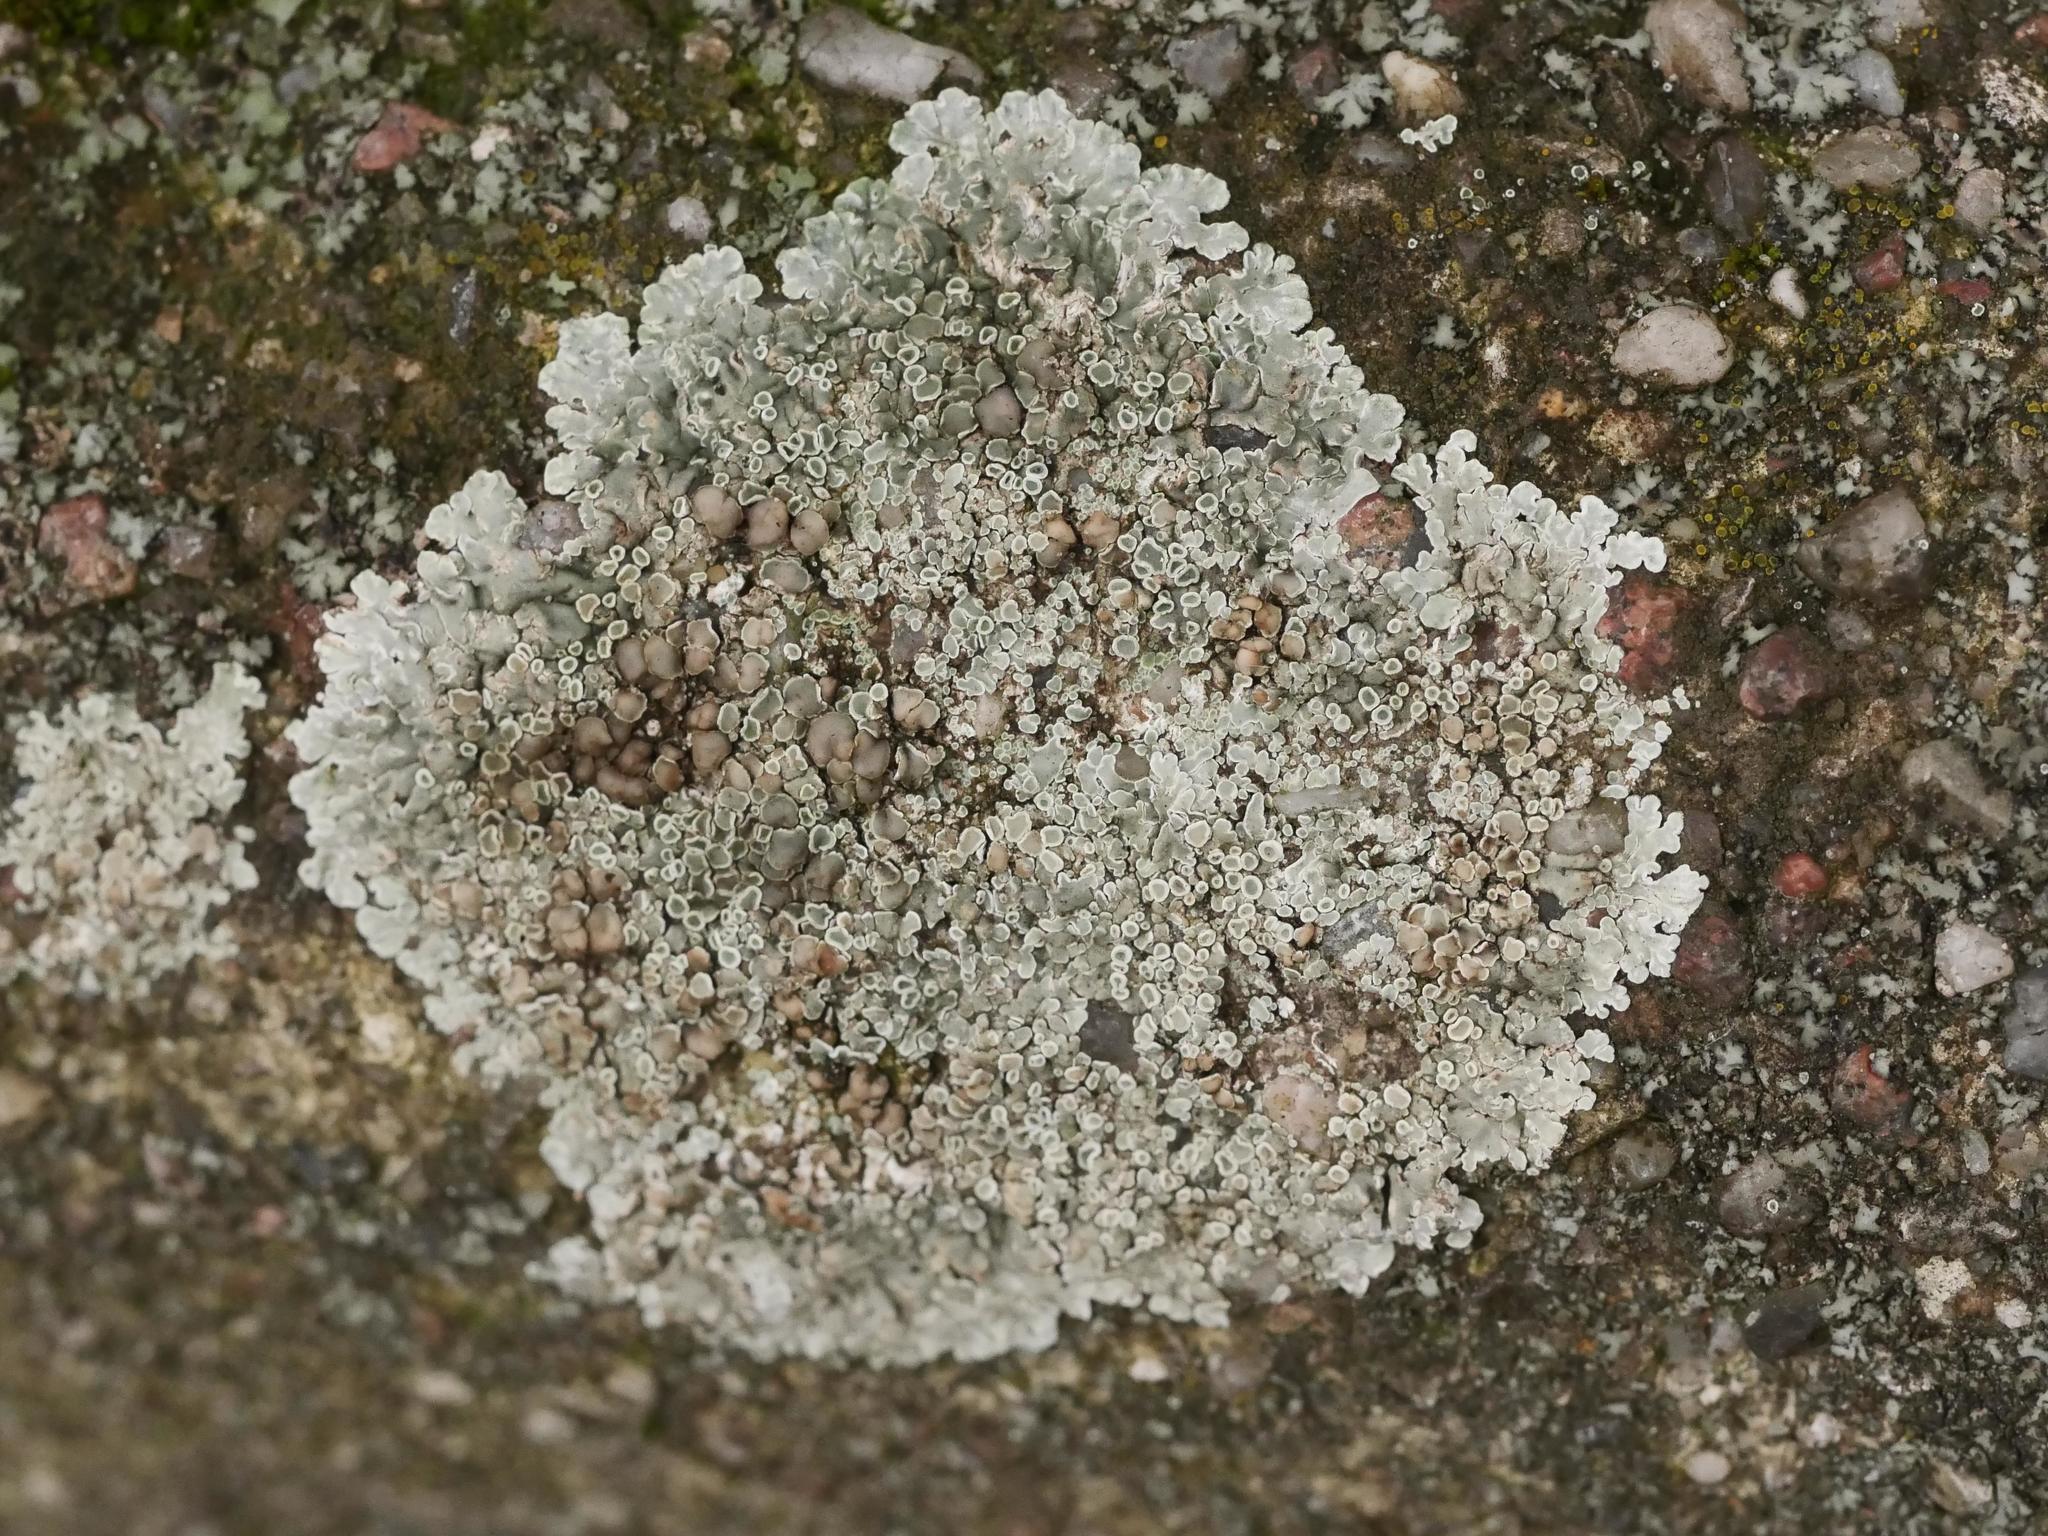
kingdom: Fungi
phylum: Ascomycota
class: Lecanoromycetes
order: Lecanorales
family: Lecanoraceae
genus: Protoparmeliopsis
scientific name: Protoparmeliopsis muralis
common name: Stonewall rim lichen
